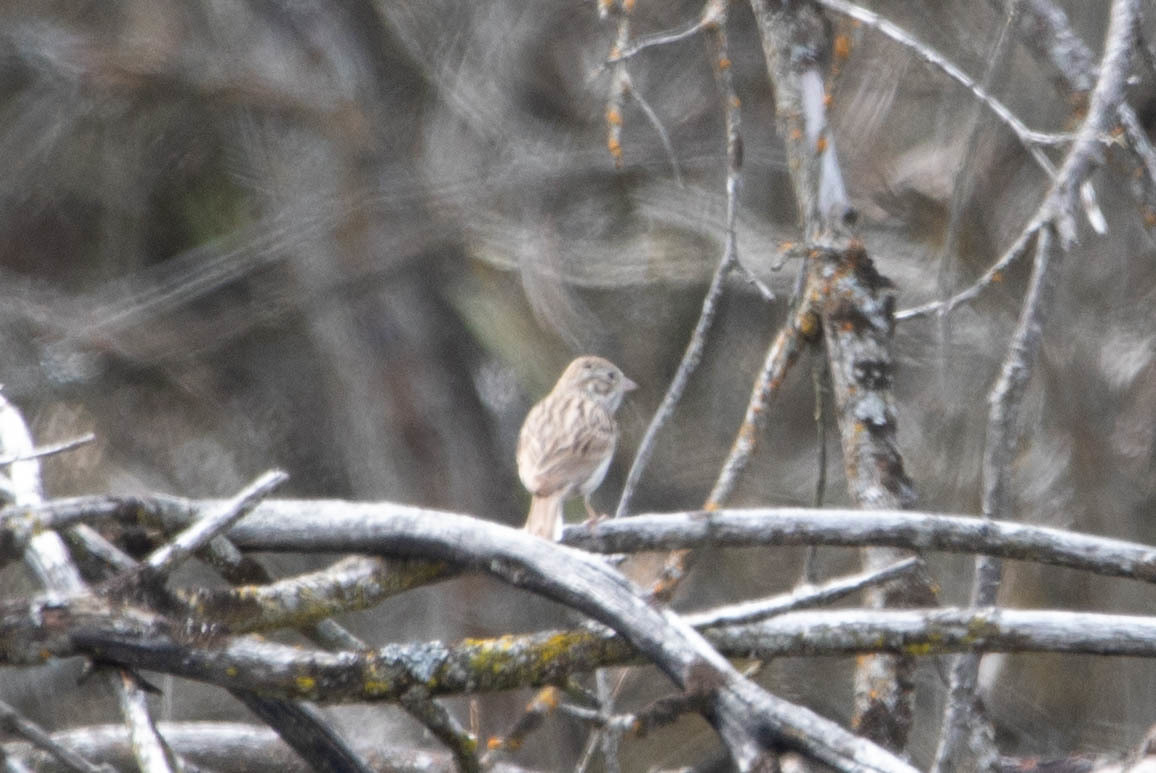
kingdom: Animalia
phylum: Chordata
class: Aves
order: Passeriformes
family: Passerellidae
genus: Pooecetes
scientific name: Pooecetes gramineus
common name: Vesper sparrow
